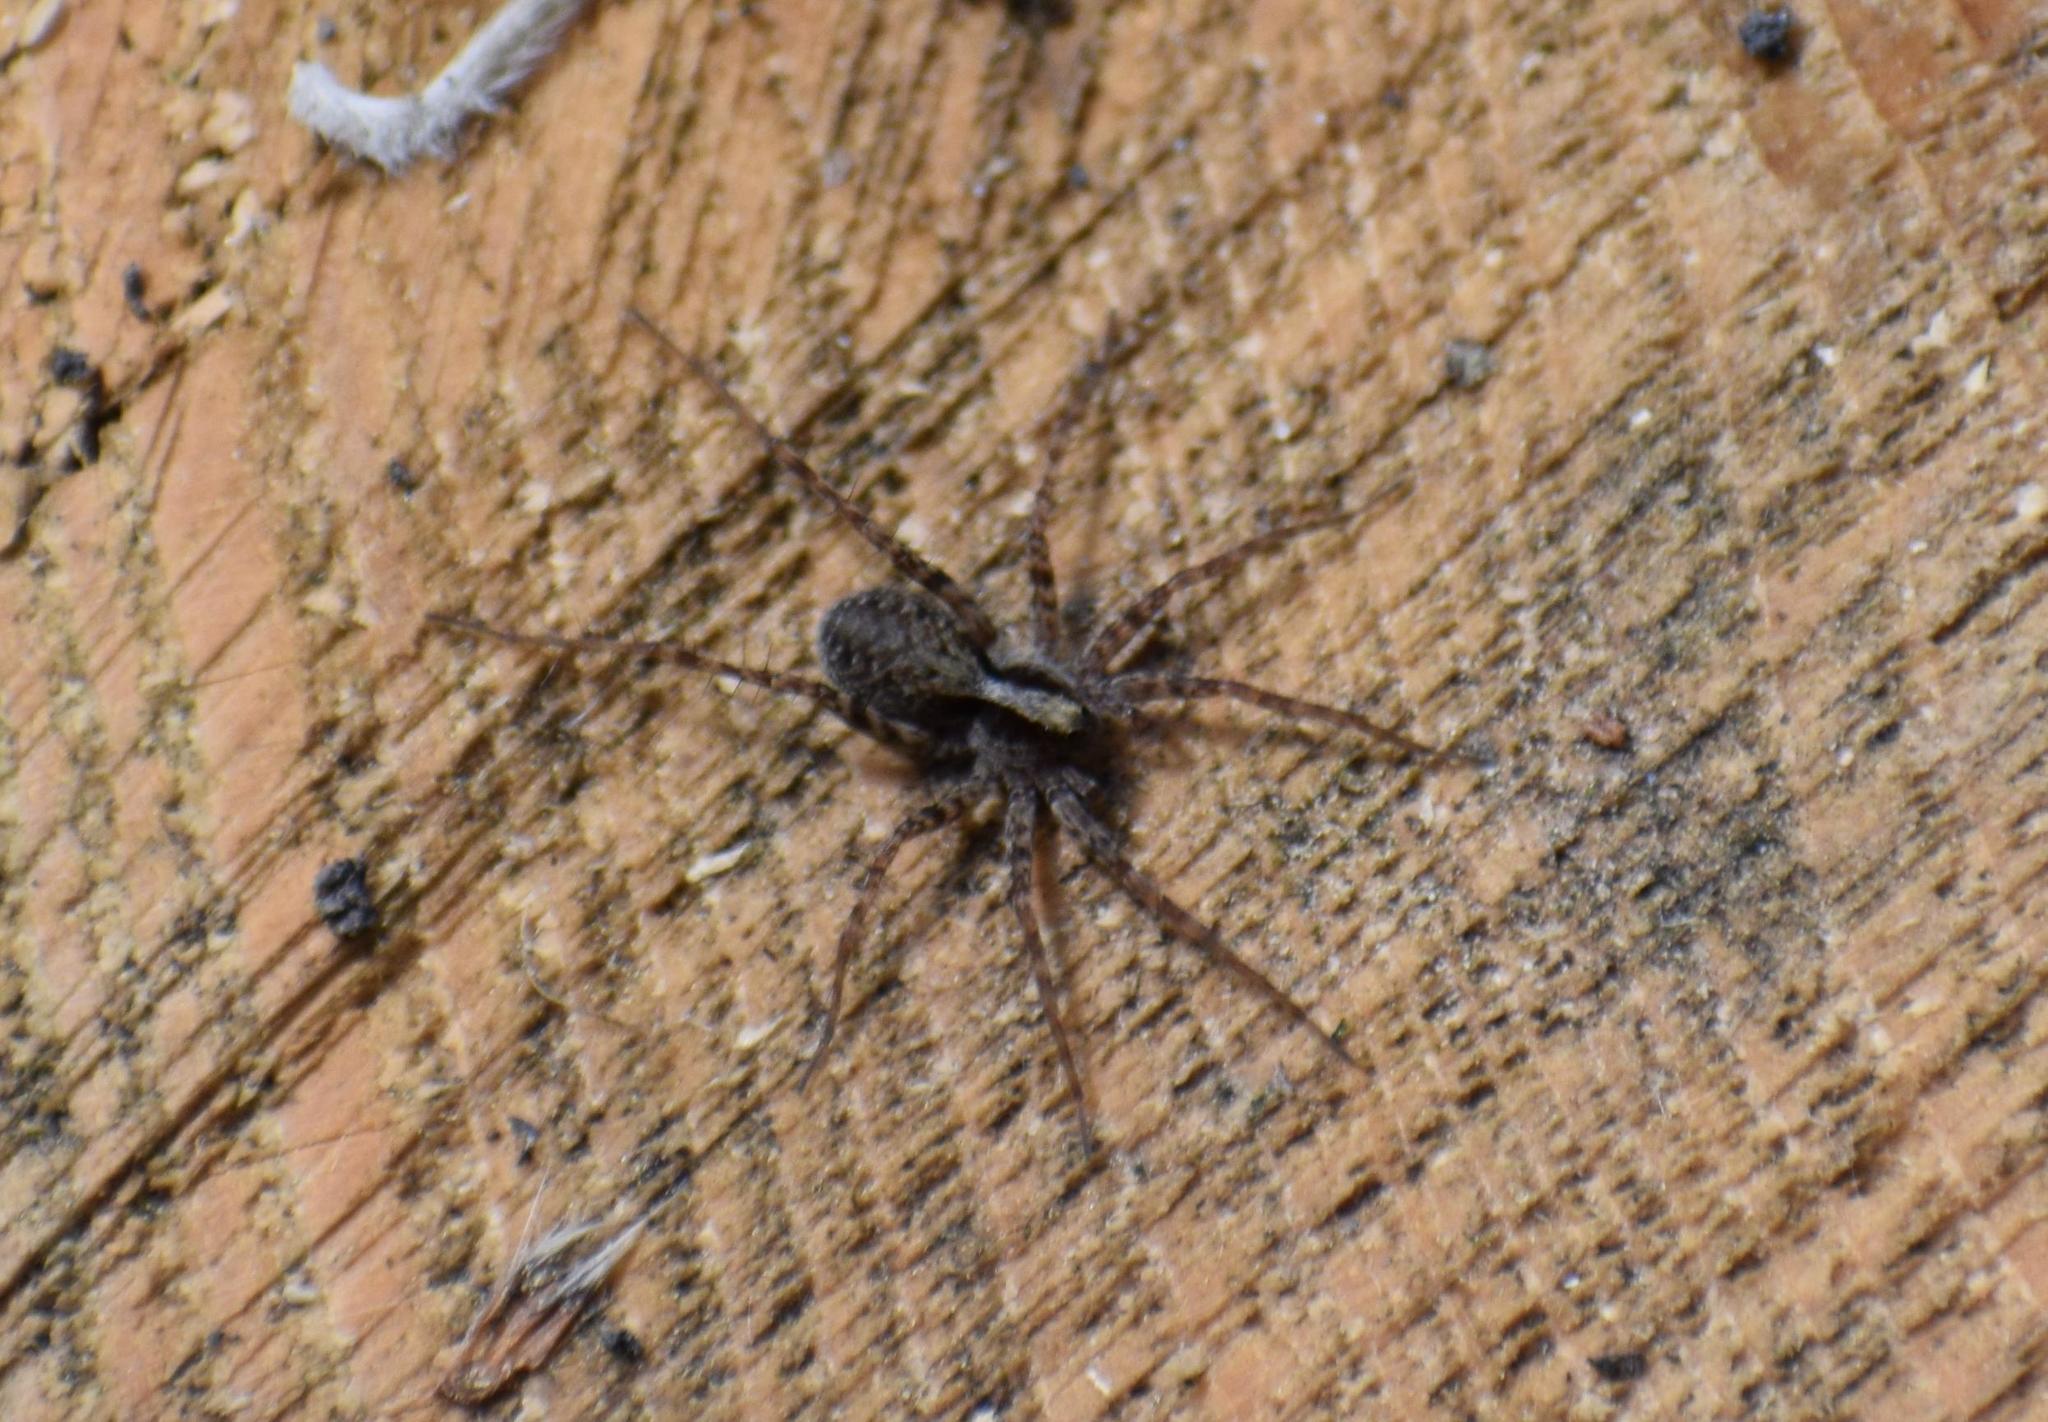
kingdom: Animalia
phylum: Arthropoda
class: Arachnida
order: Araneae
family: Lycosidae
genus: Pardosa
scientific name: Pardosa
